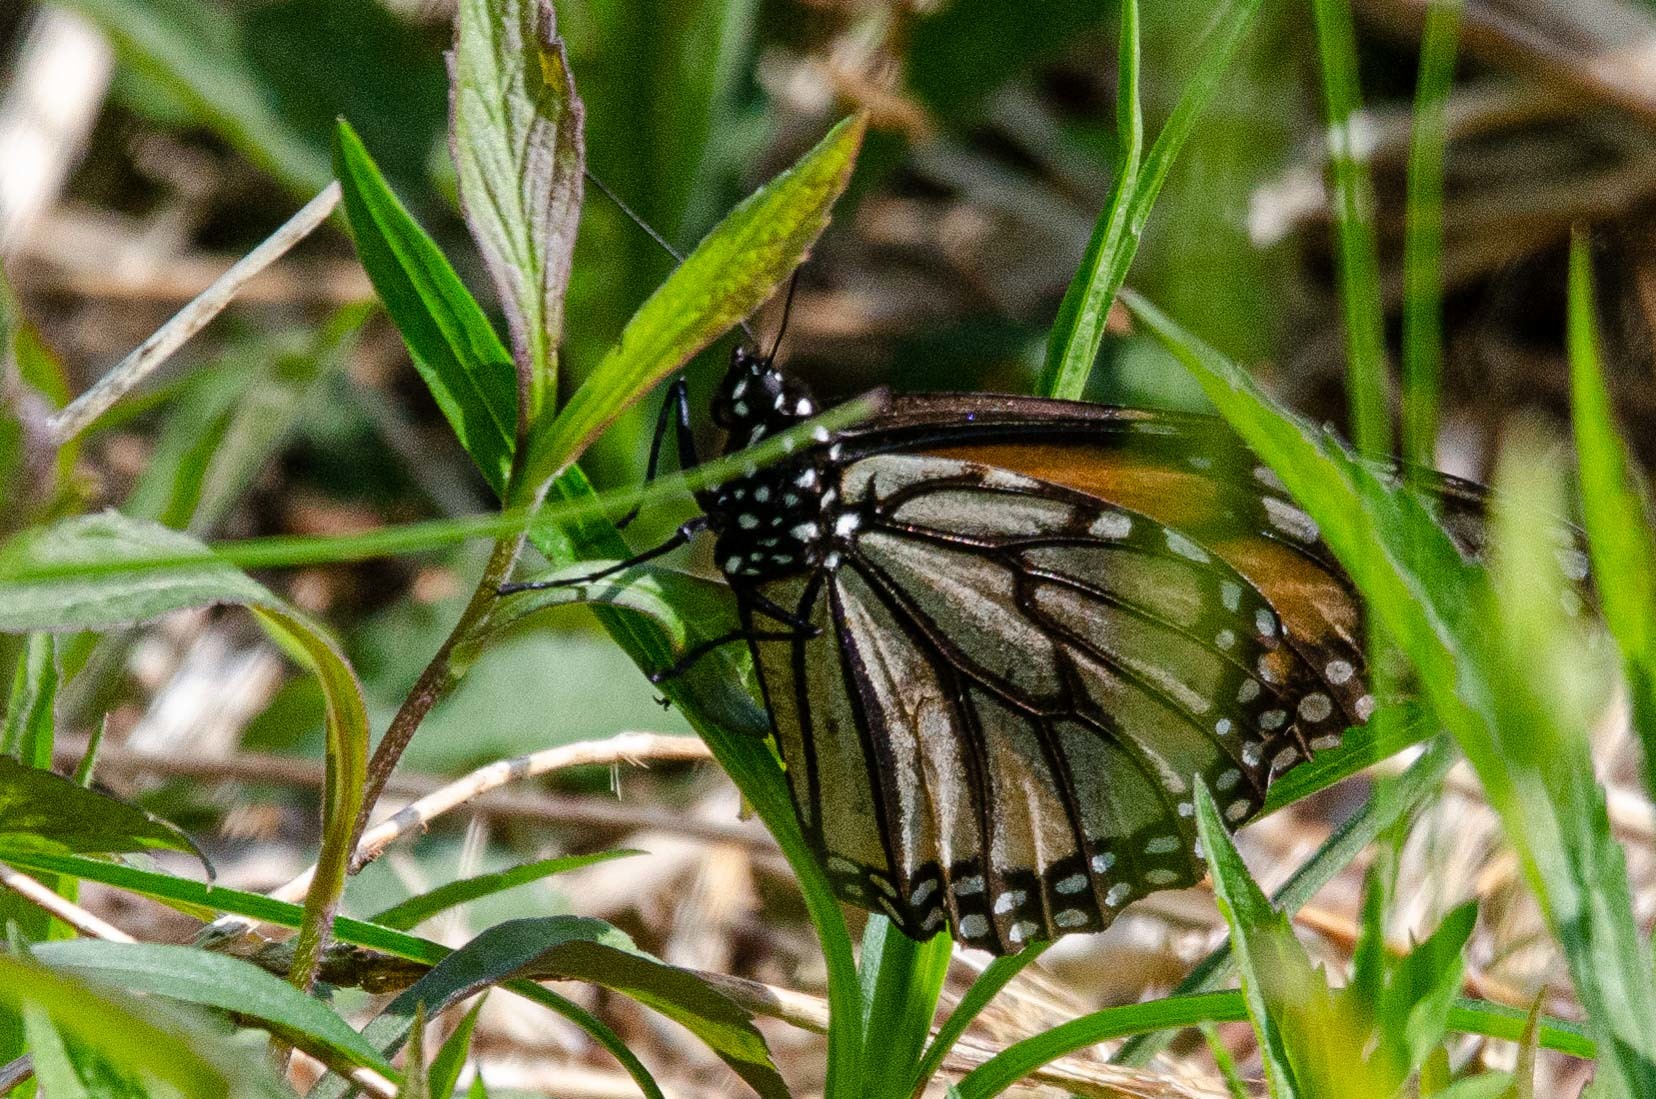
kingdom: Animalia
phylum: Arthropoda
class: Insecta
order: Lepidoptera
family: Nymphalidae
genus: Danaus
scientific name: Danaus plexippus
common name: Monarch
